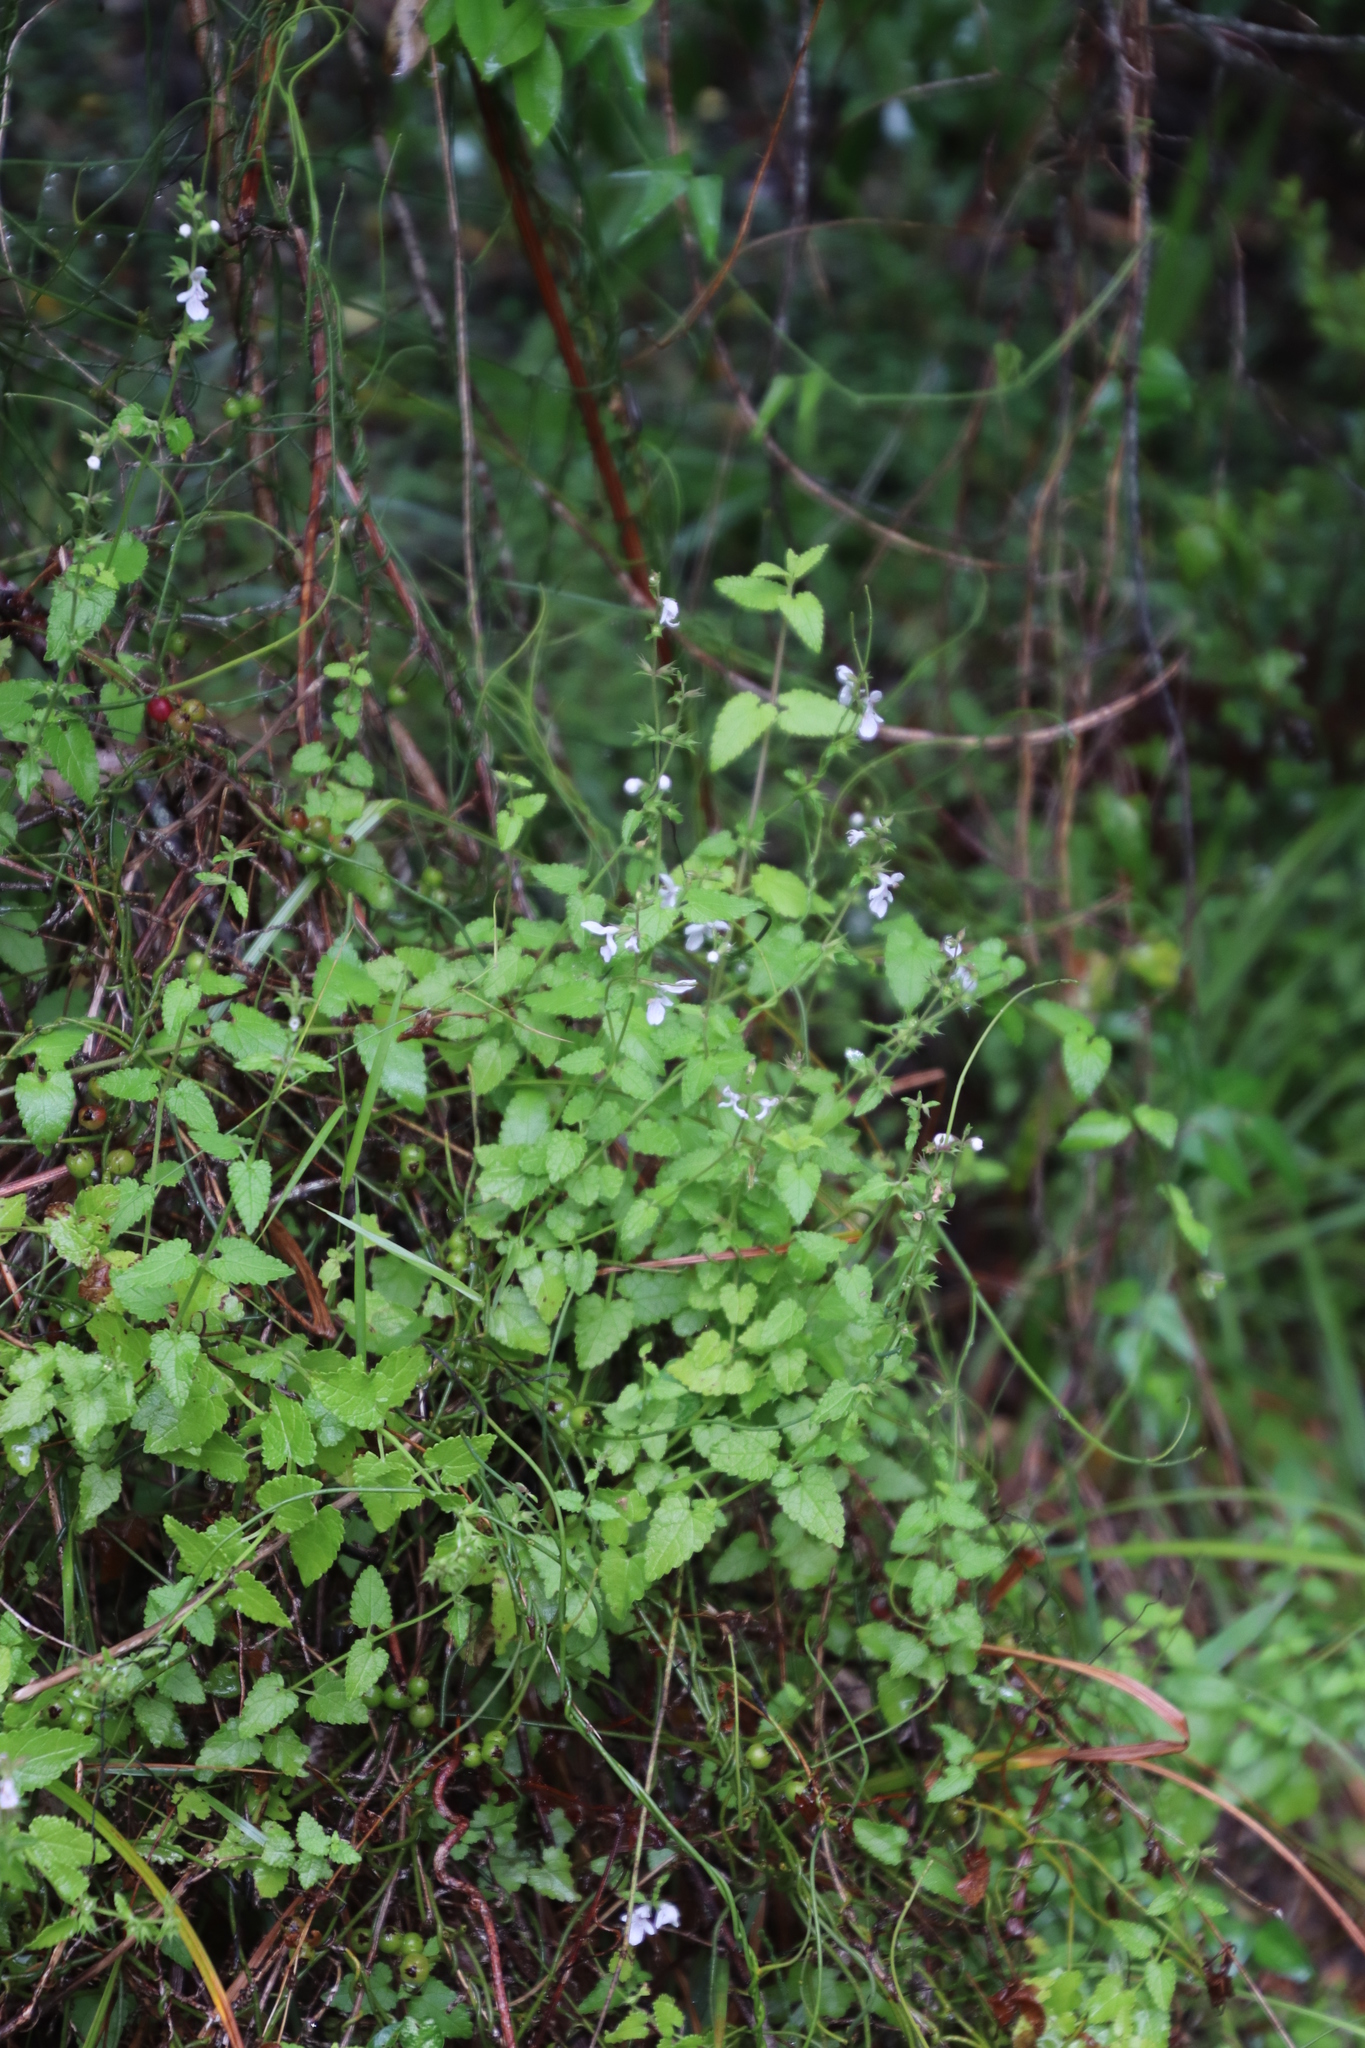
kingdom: Plantae
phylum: Tracheophyta
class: Magnoliopsida
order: Lamiales
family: Lamiaceae
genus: Stachys
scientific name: Stachys aethiopica
